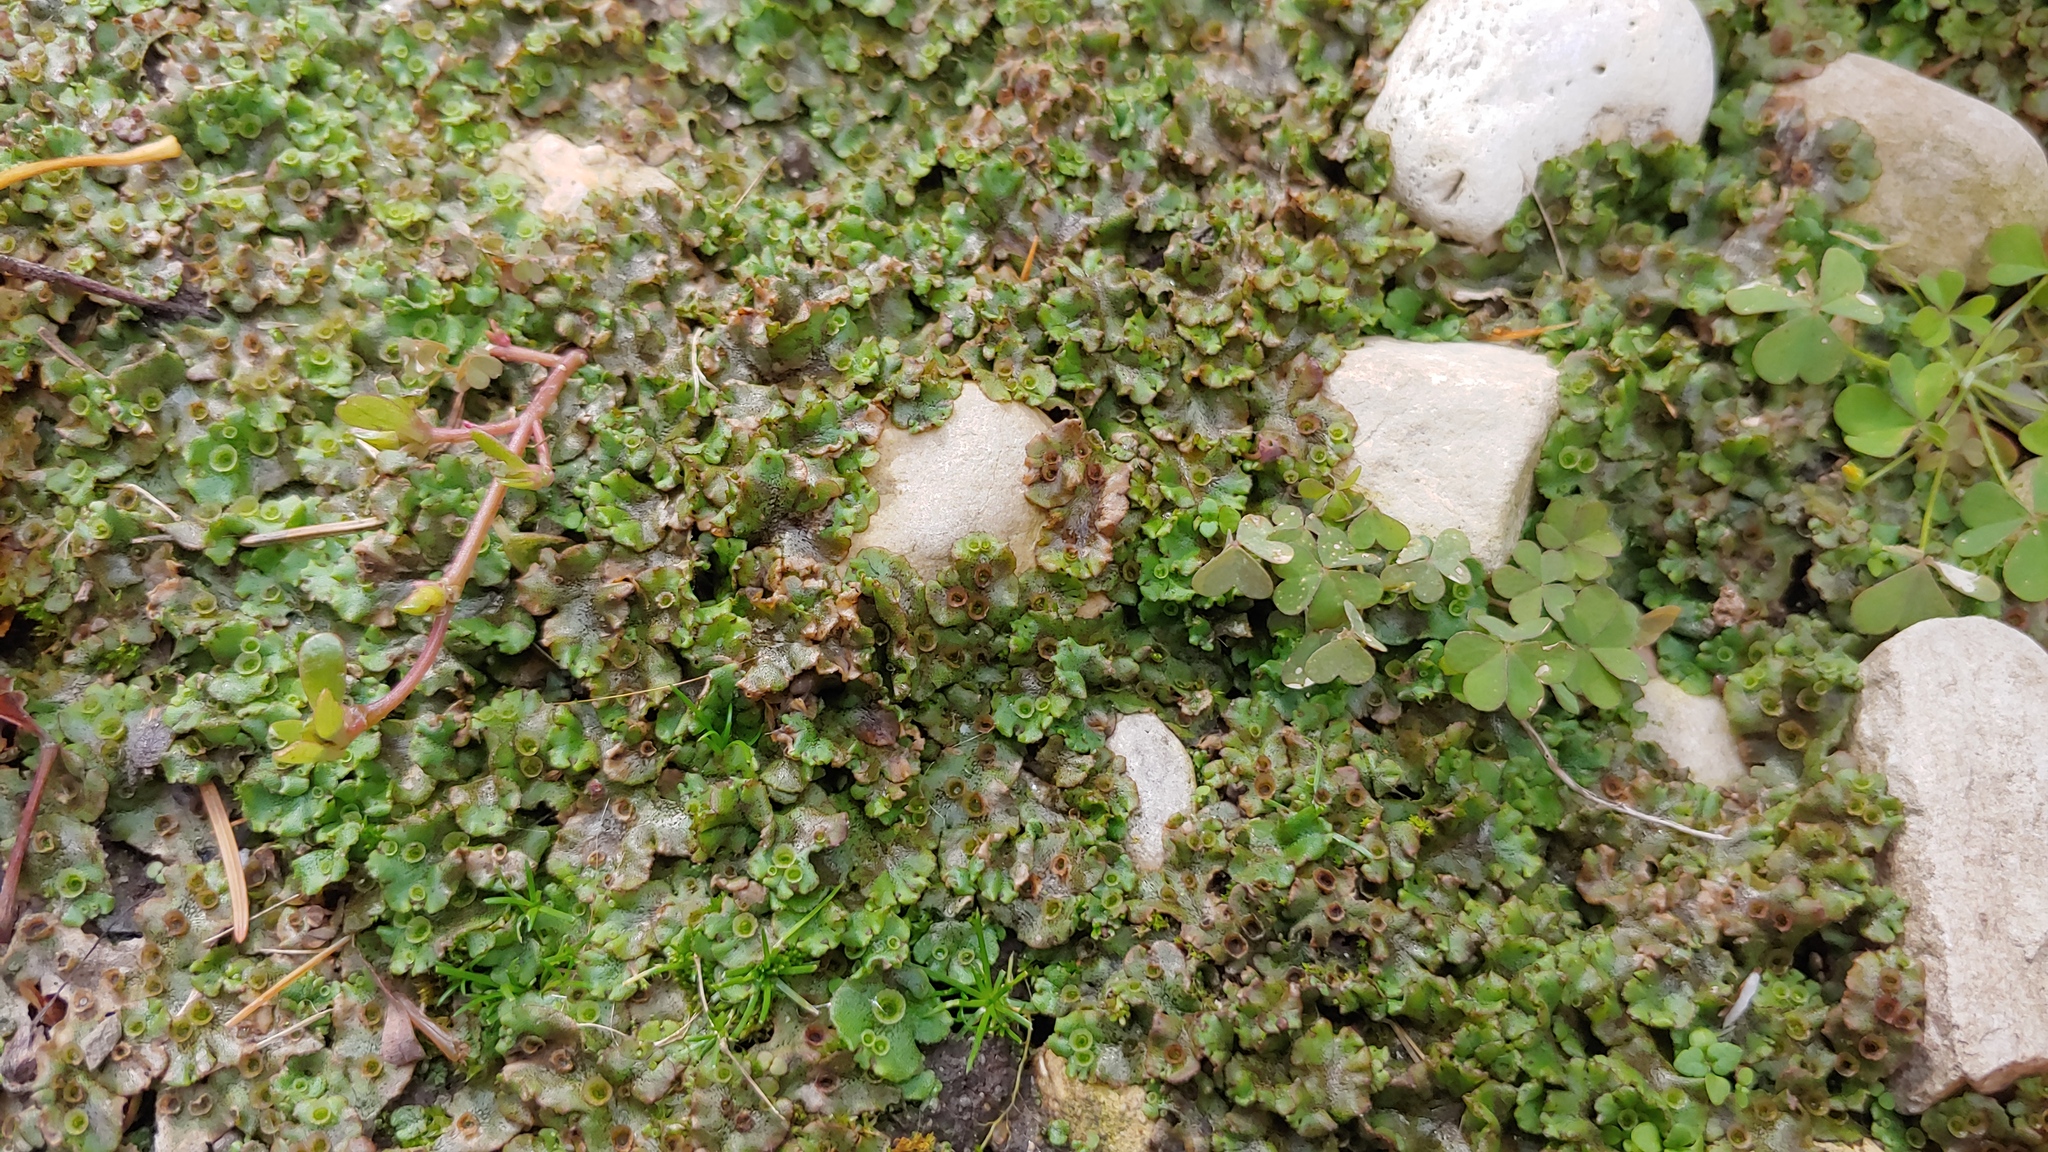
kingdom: Plantae
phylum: Marchantiophyta
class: Marchantiopsida
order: Marchantiales
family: Marchantiaceae
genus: Marchantia
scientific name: Marchantia polymorpha
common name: Common liverwort
